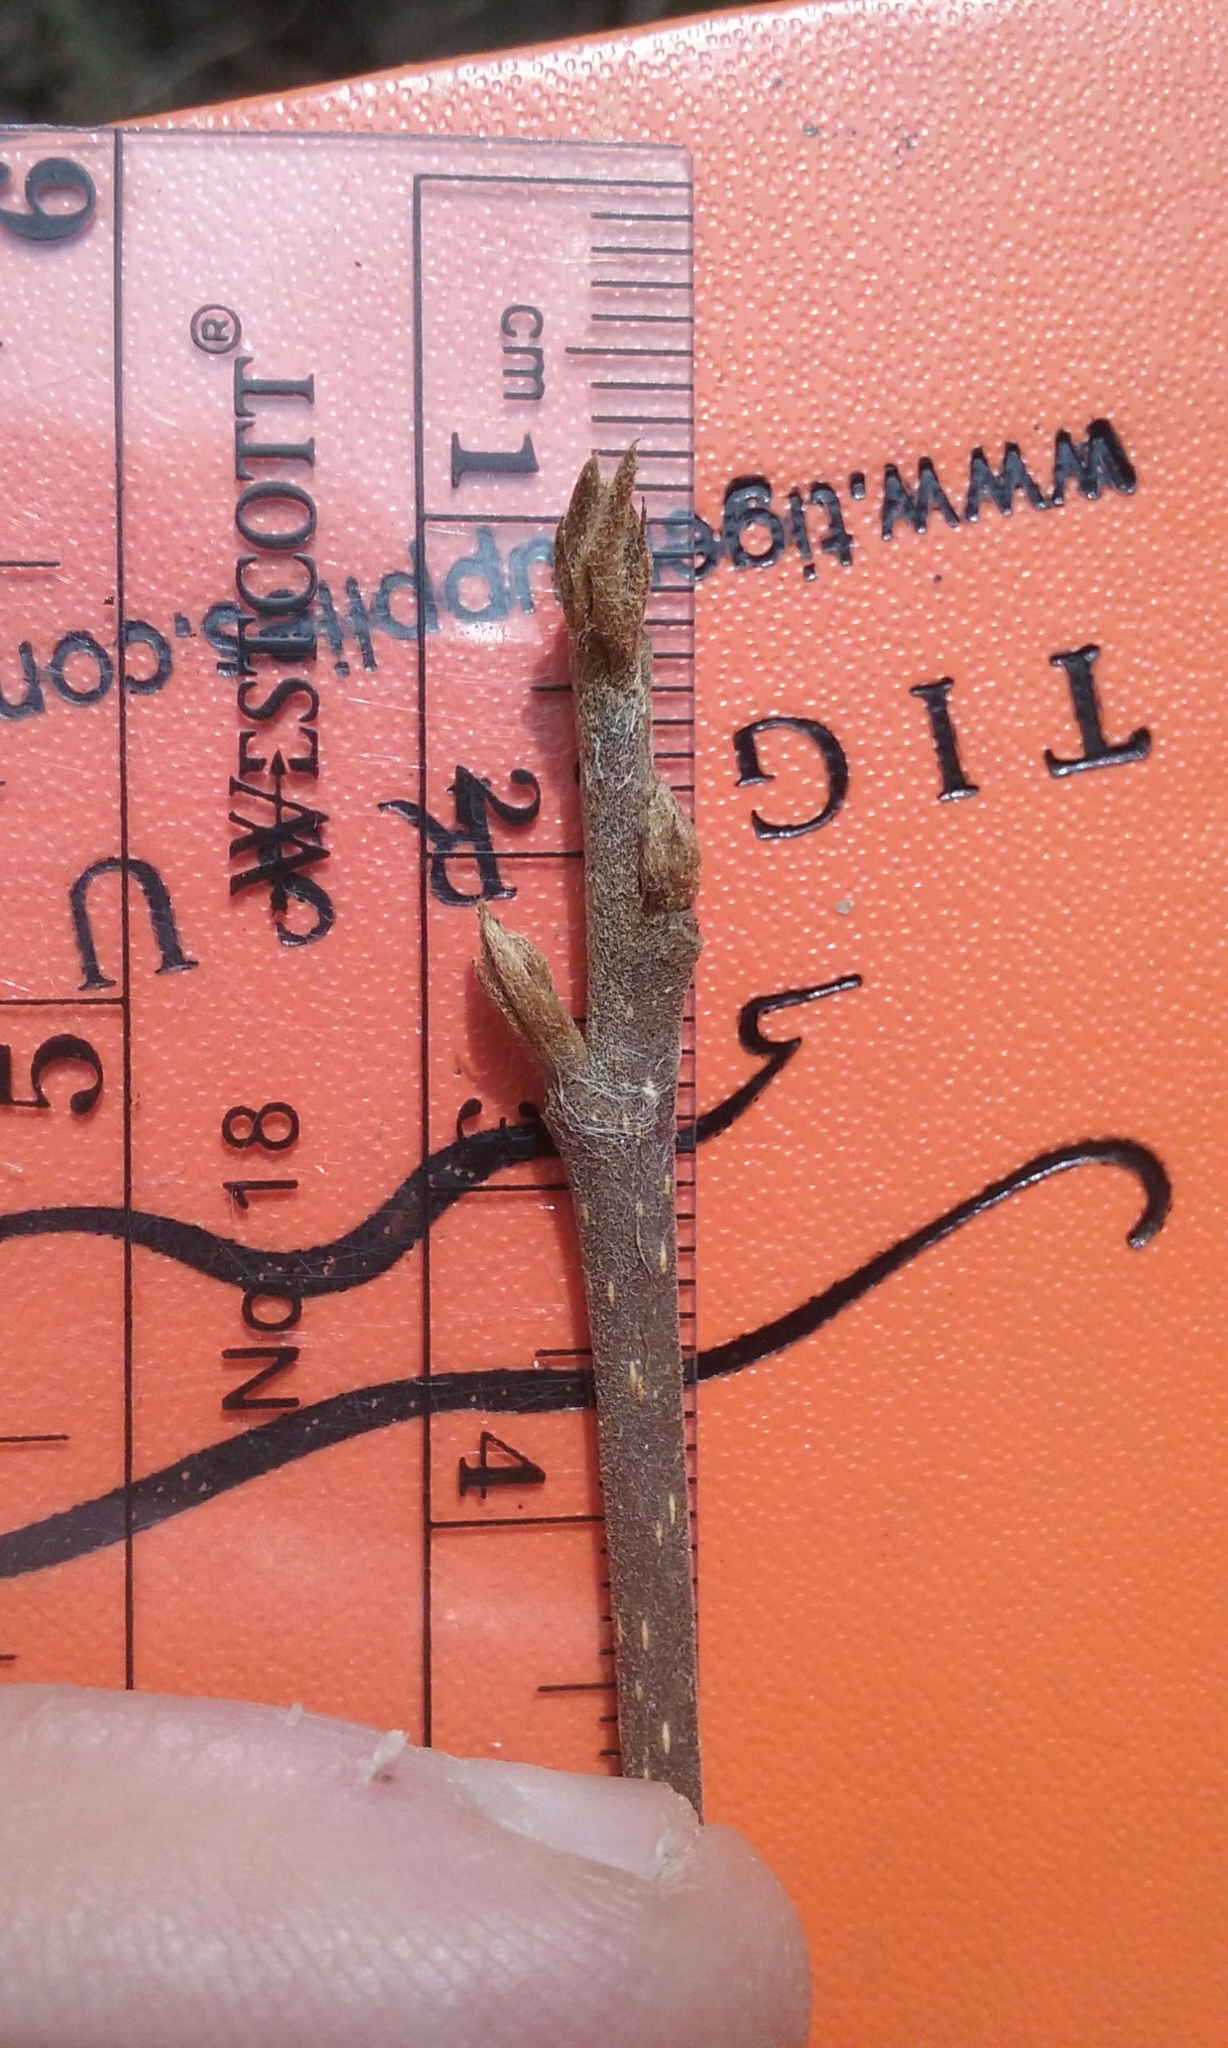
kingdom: Plantae
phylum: Tracheophyta
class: Magnoliopsida
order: Rosales
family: Rhamnaceae
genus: Frangula
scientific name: Frangula alnus
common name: Alder buckthorn
